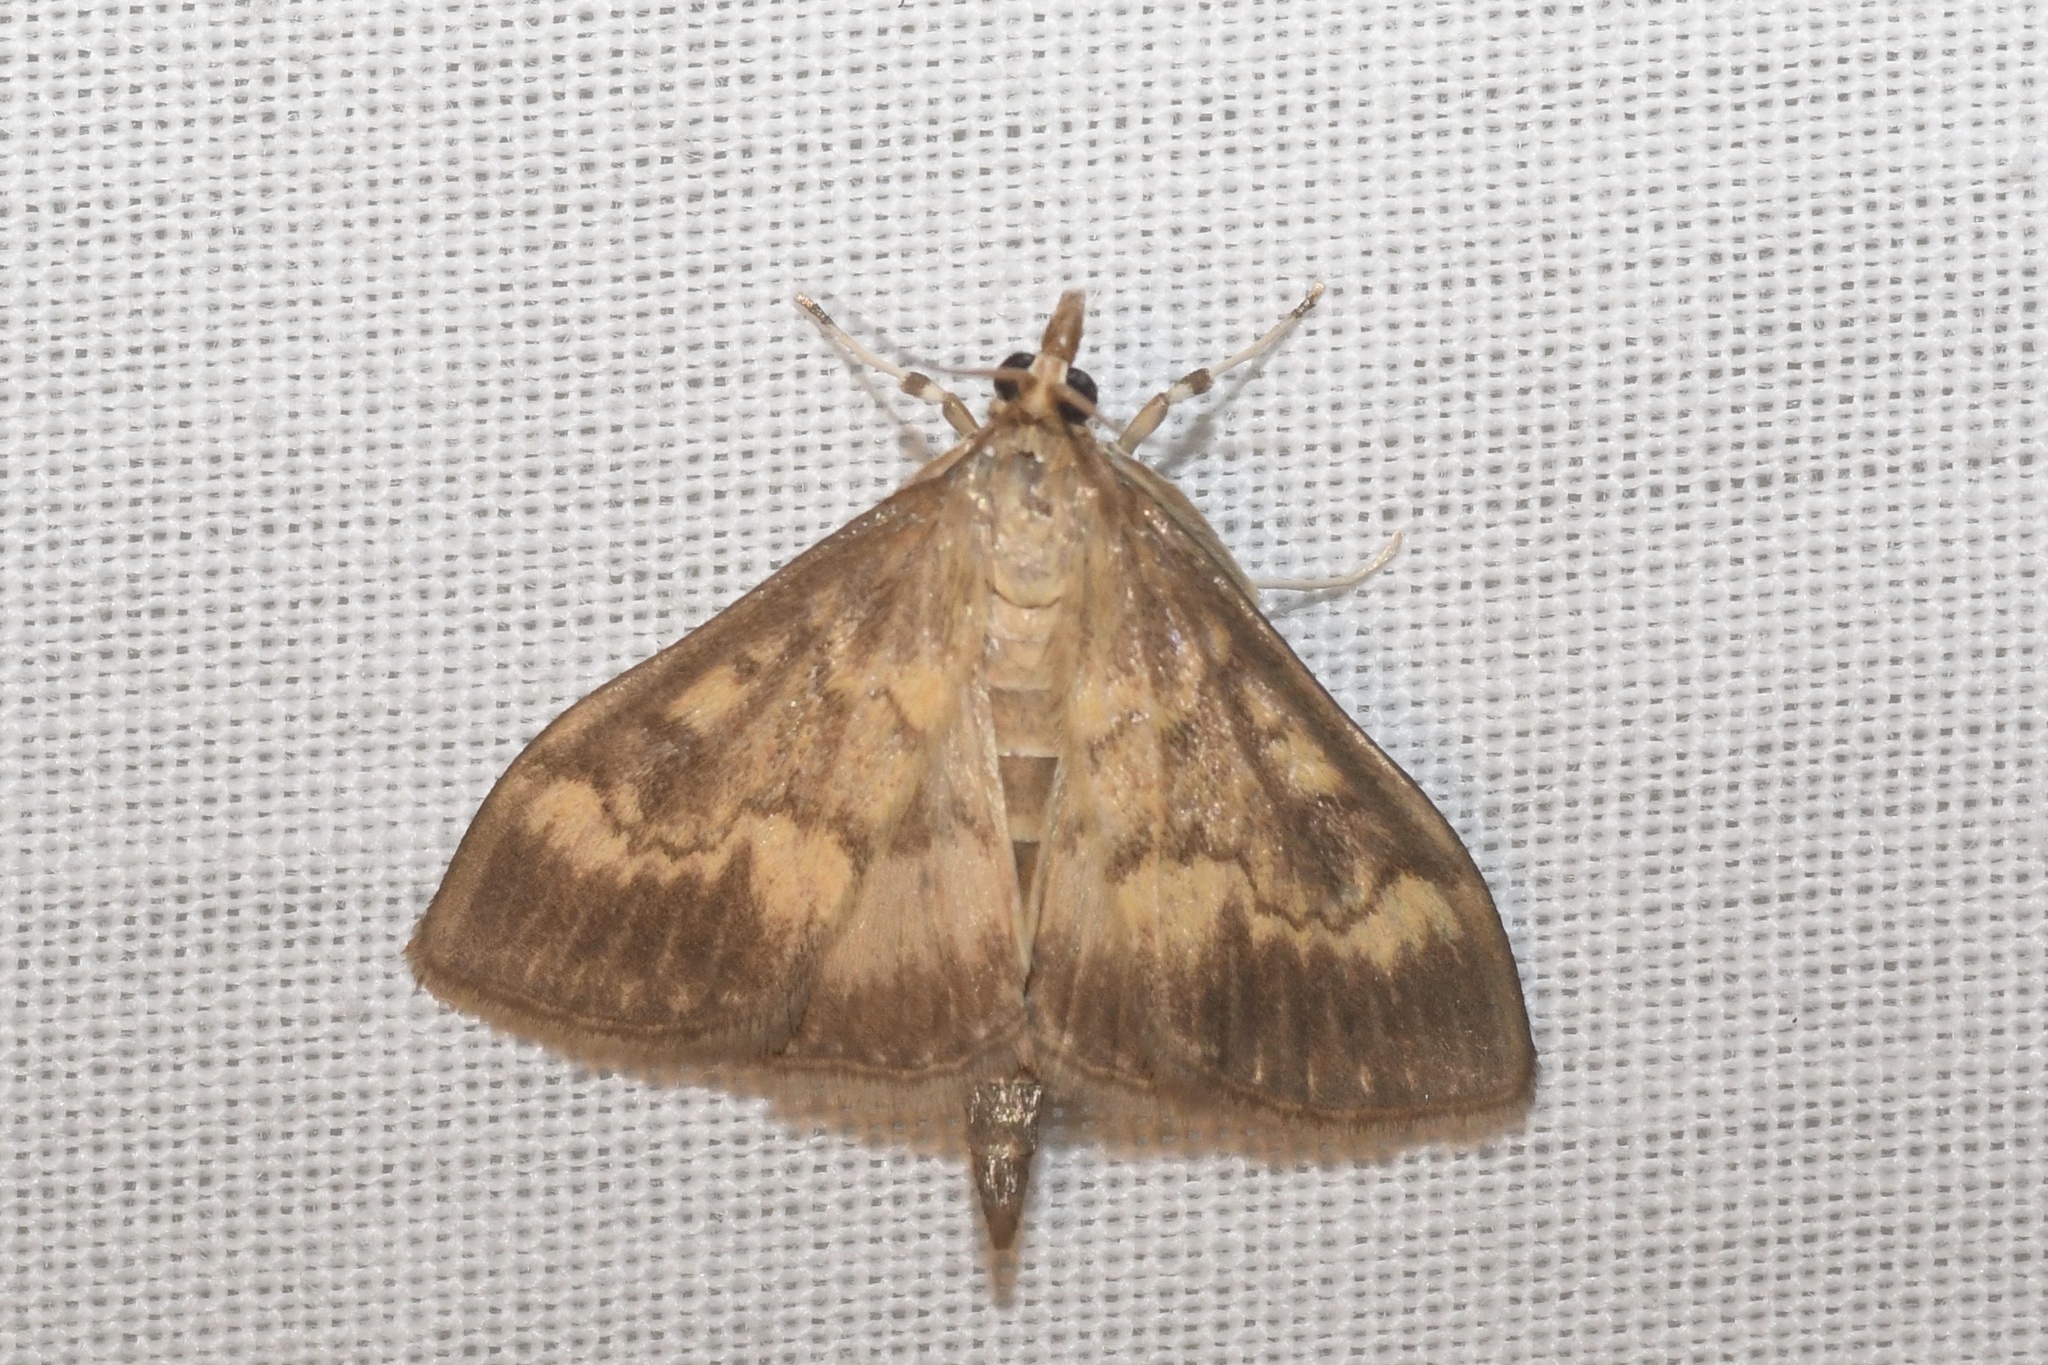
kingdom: Animalia
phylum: Arthropoda
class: Insecta
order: Lepidoptera
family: Crambidae
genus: Ostrinia
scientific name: Ostrinia nubilalis
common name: European corn borer
